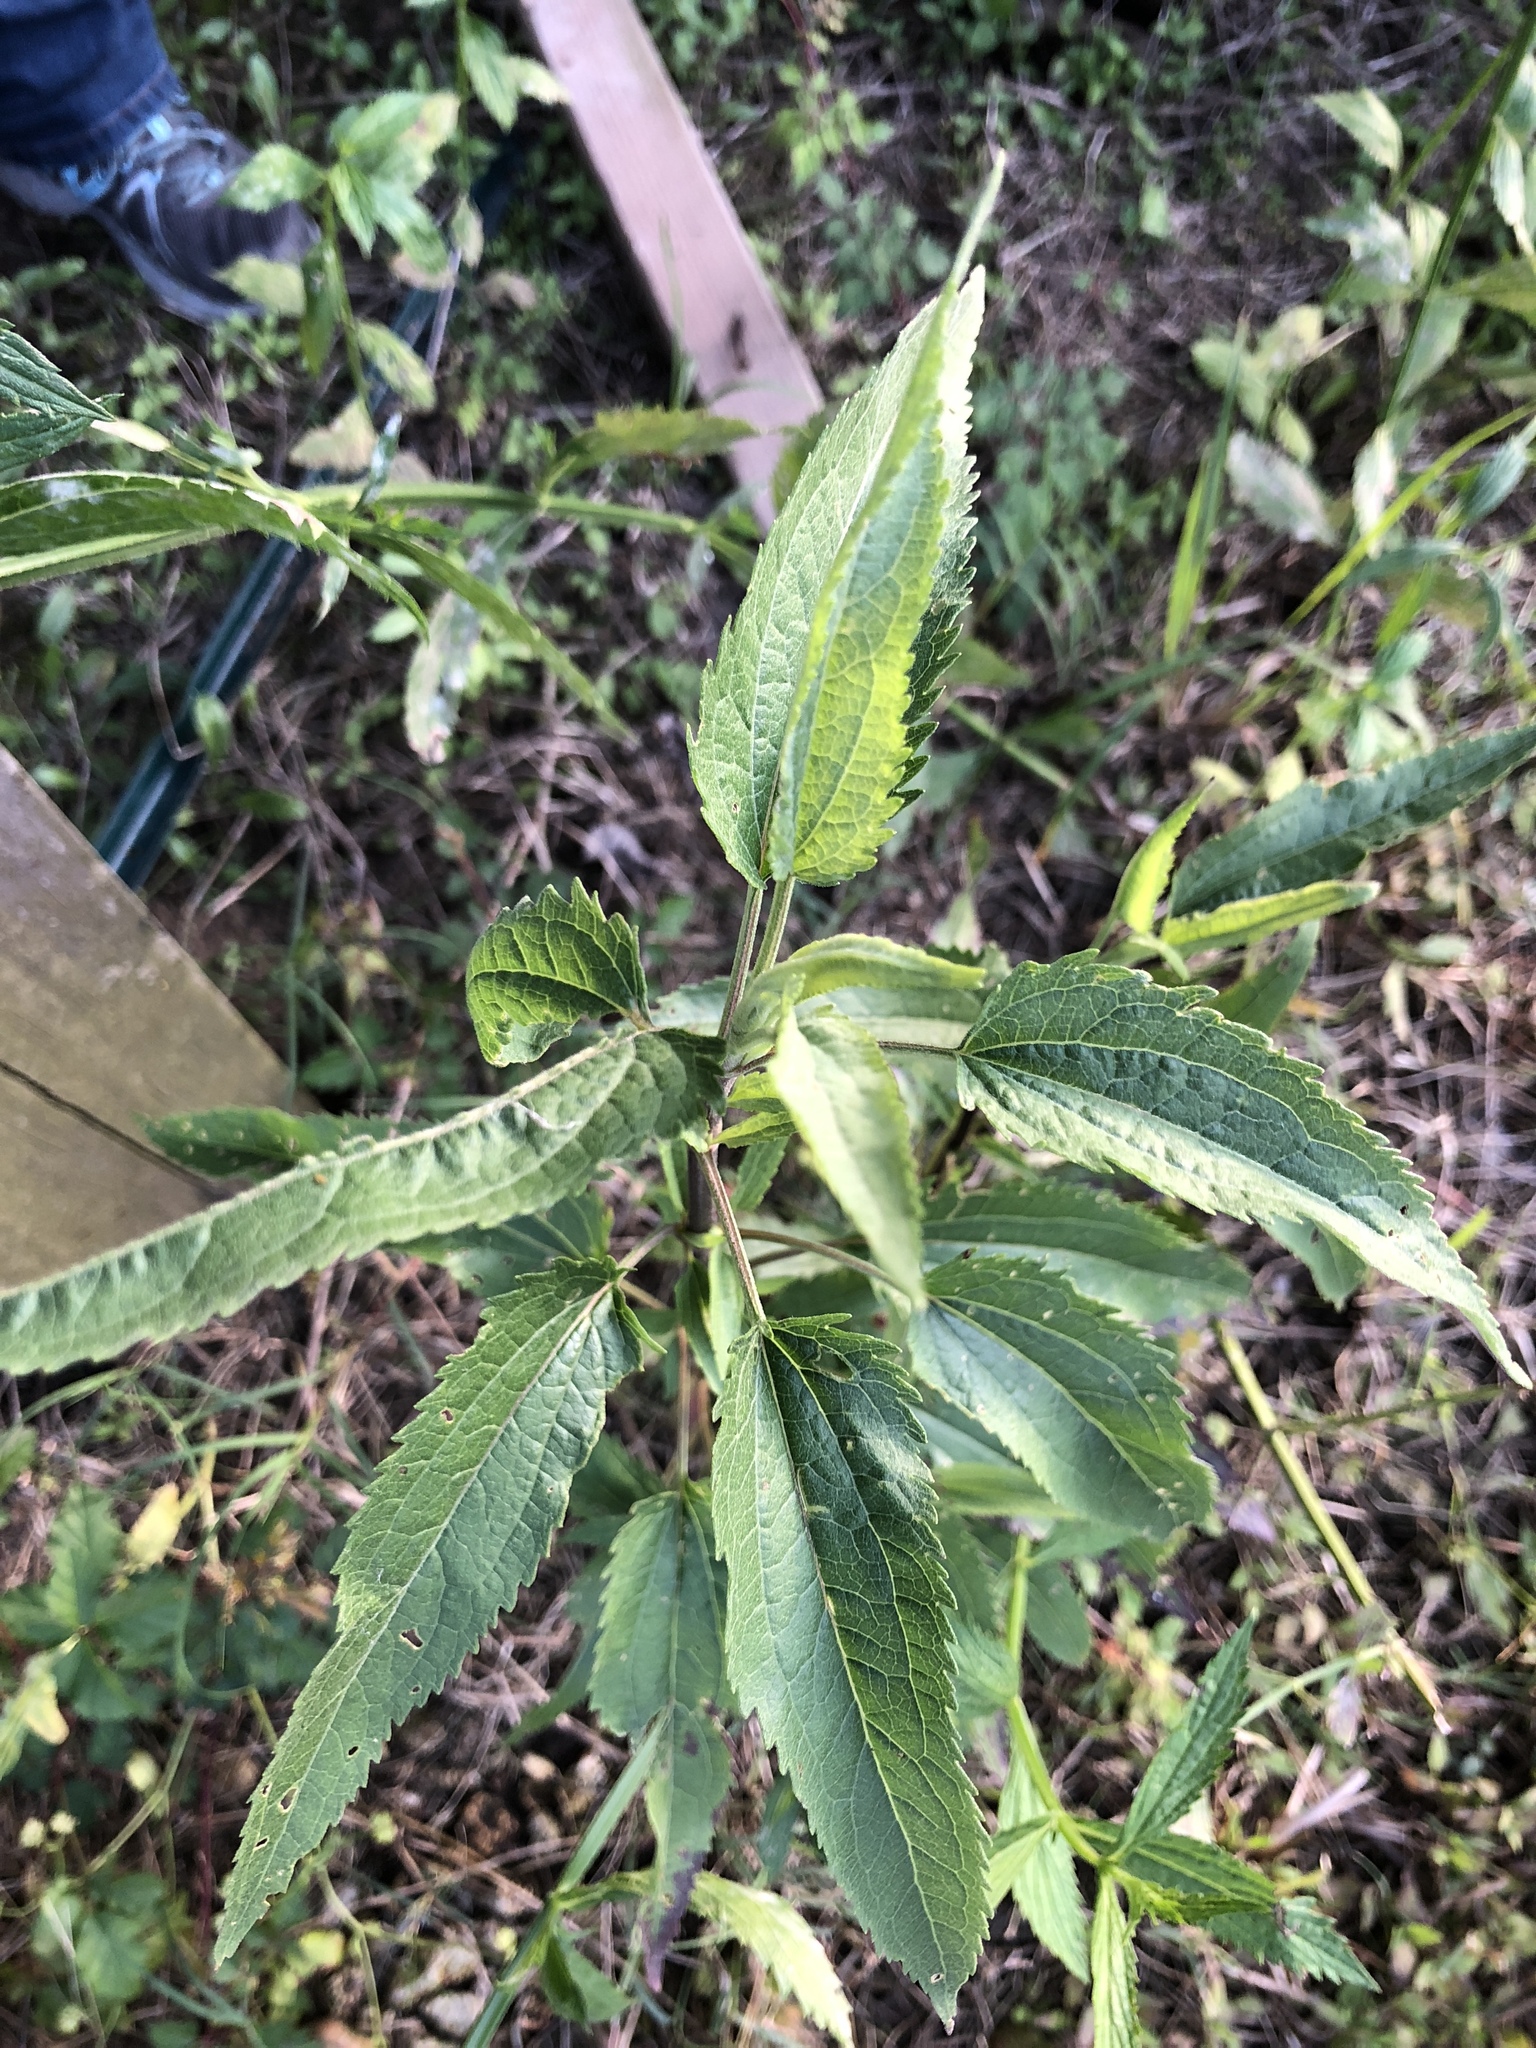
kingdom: Plantae
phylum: Tracheophyta
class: Magnoliopsida
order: Asterales
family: Asteraceae
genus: Eupatorium
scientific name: Eupatorium serotinum
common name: Late boneset
